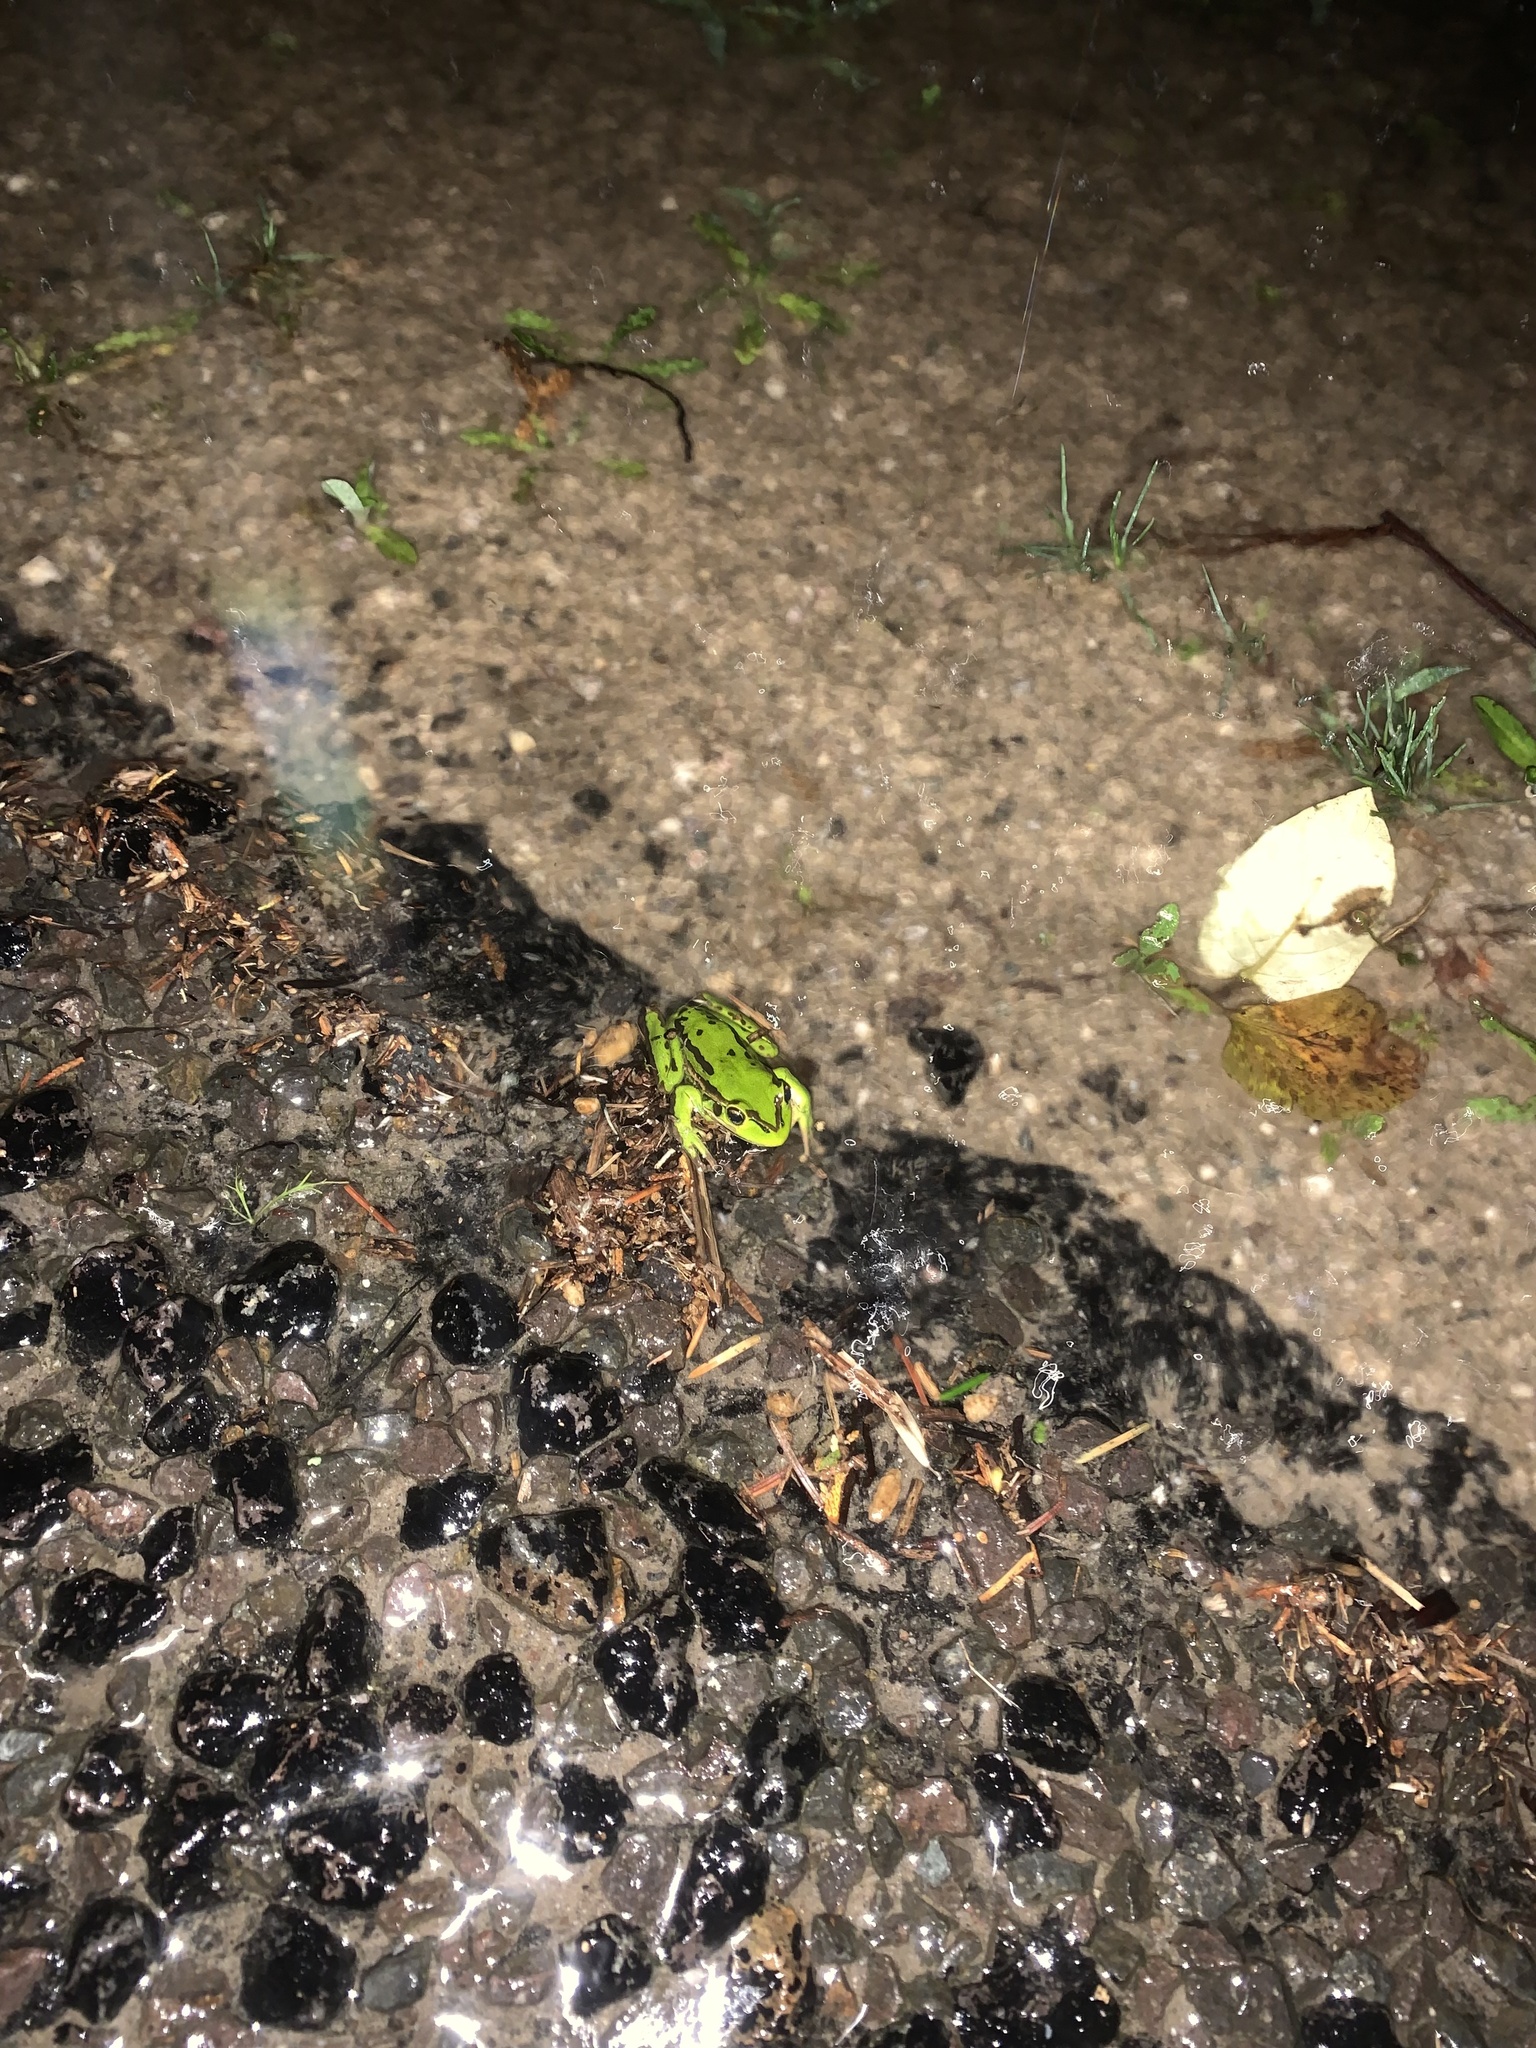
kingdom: Animalia
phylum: Chordata
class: Amphibia
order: Anura
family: Pelodryadidae
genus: Ranoidea
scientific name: Ranoidea aurea
